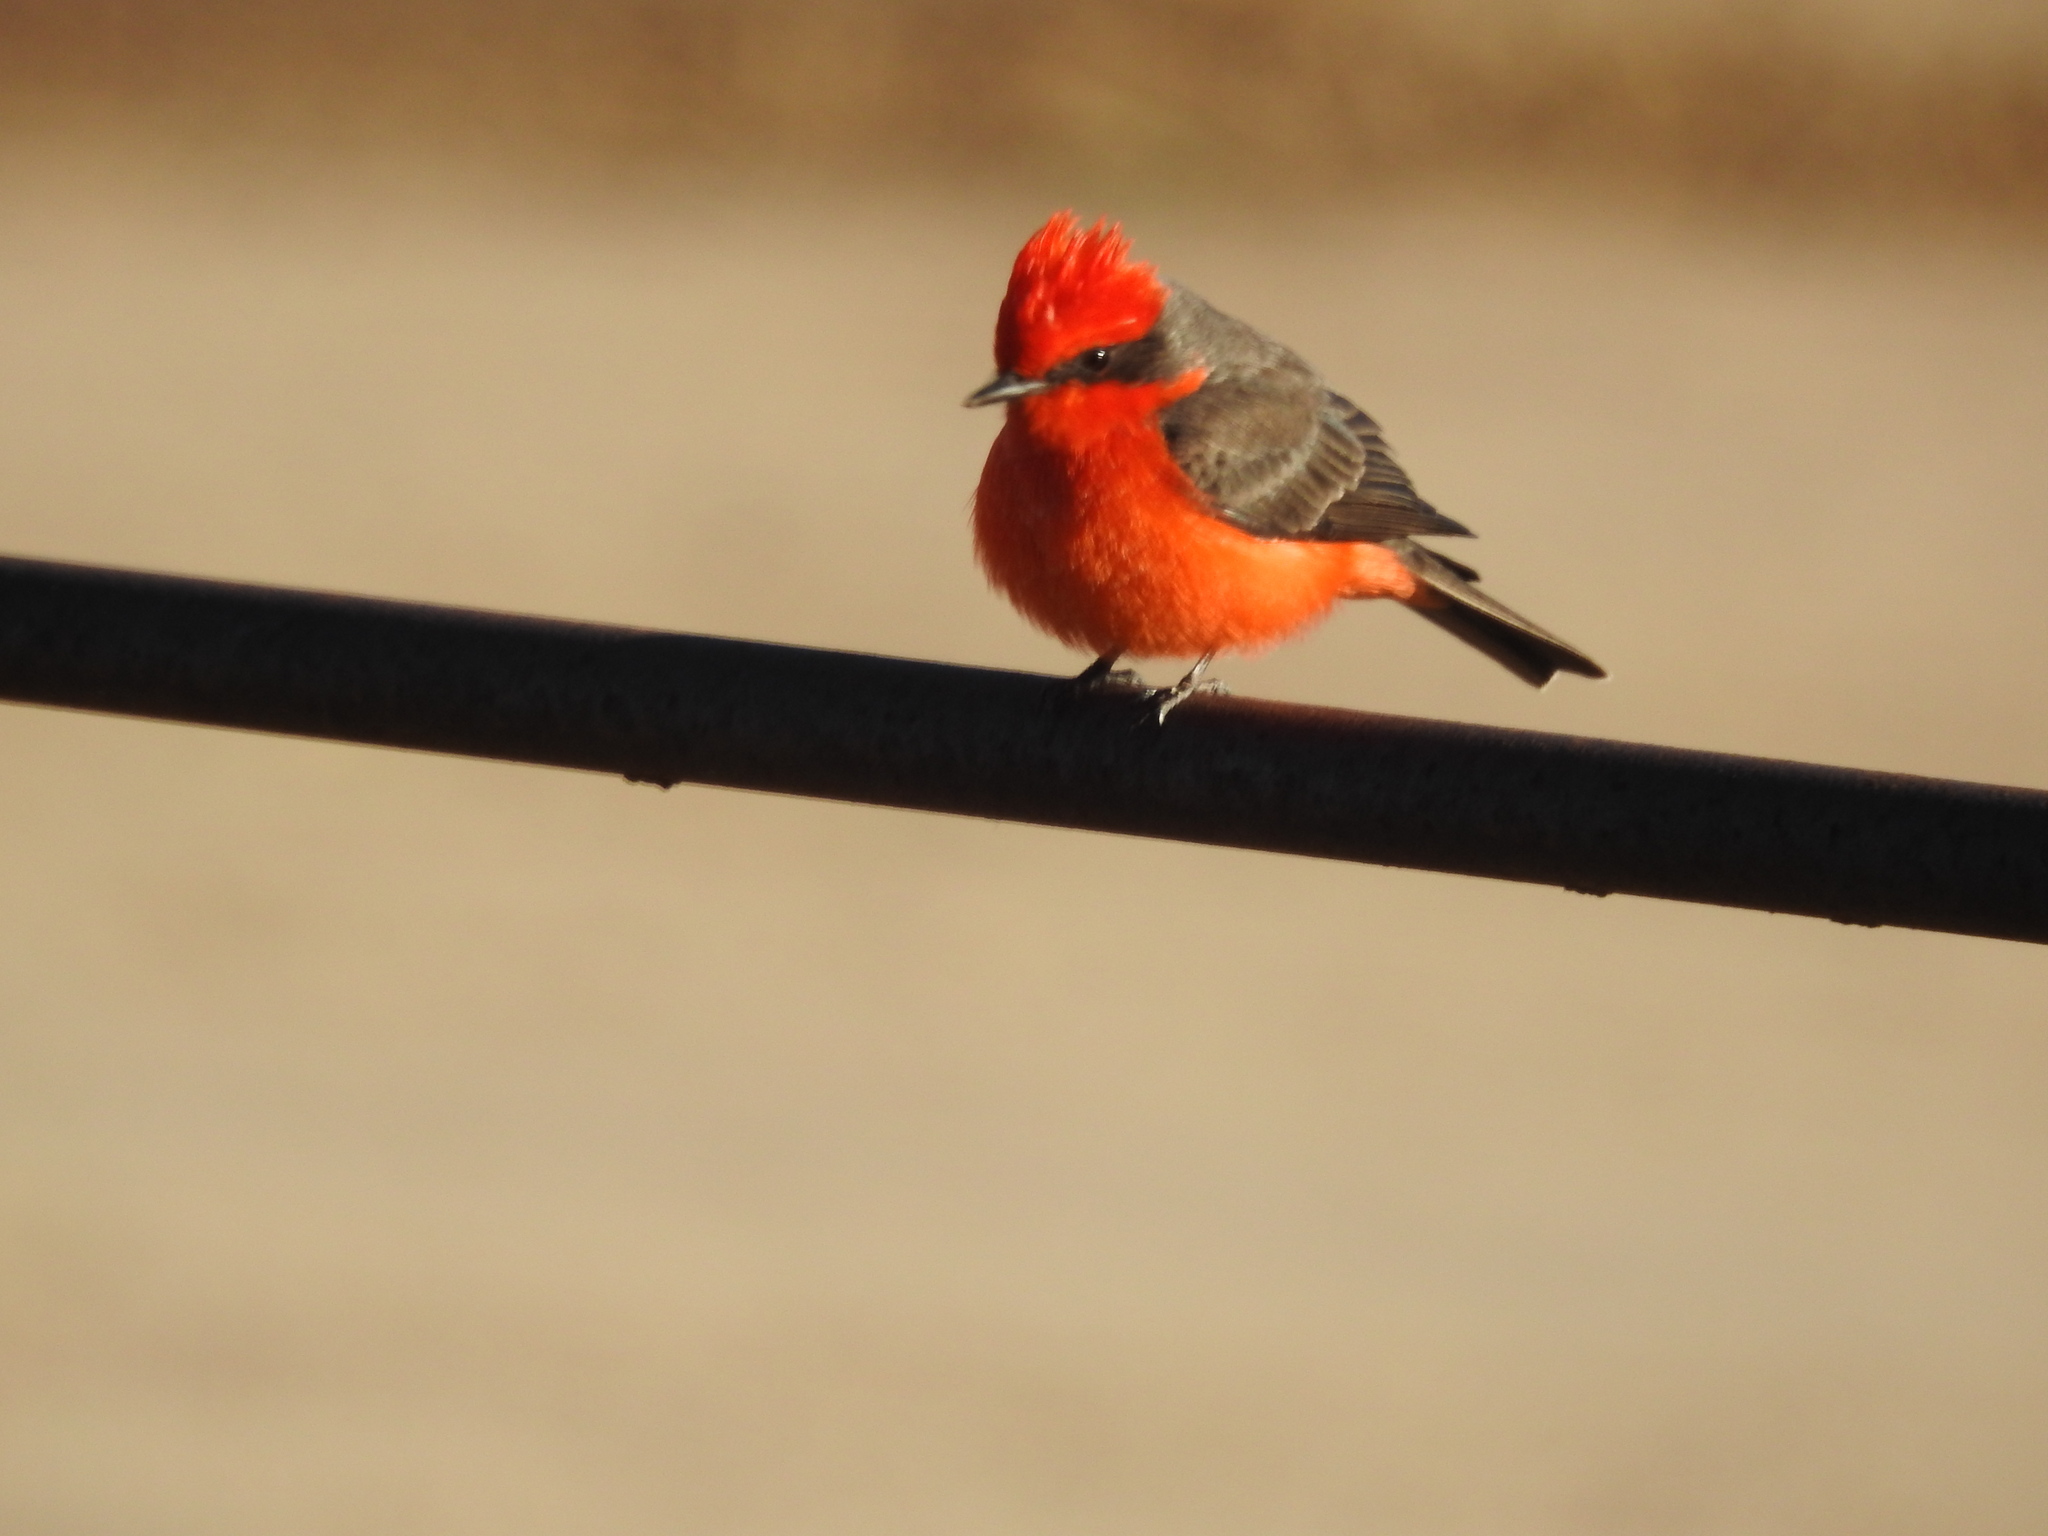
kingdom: Animalia
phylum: Chordata
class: Aves
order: Passeriformes
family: Tyrannidae
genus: Pyrocephalus
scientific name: Pyrocephalus rubinus
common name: Vermilion flycatcher
